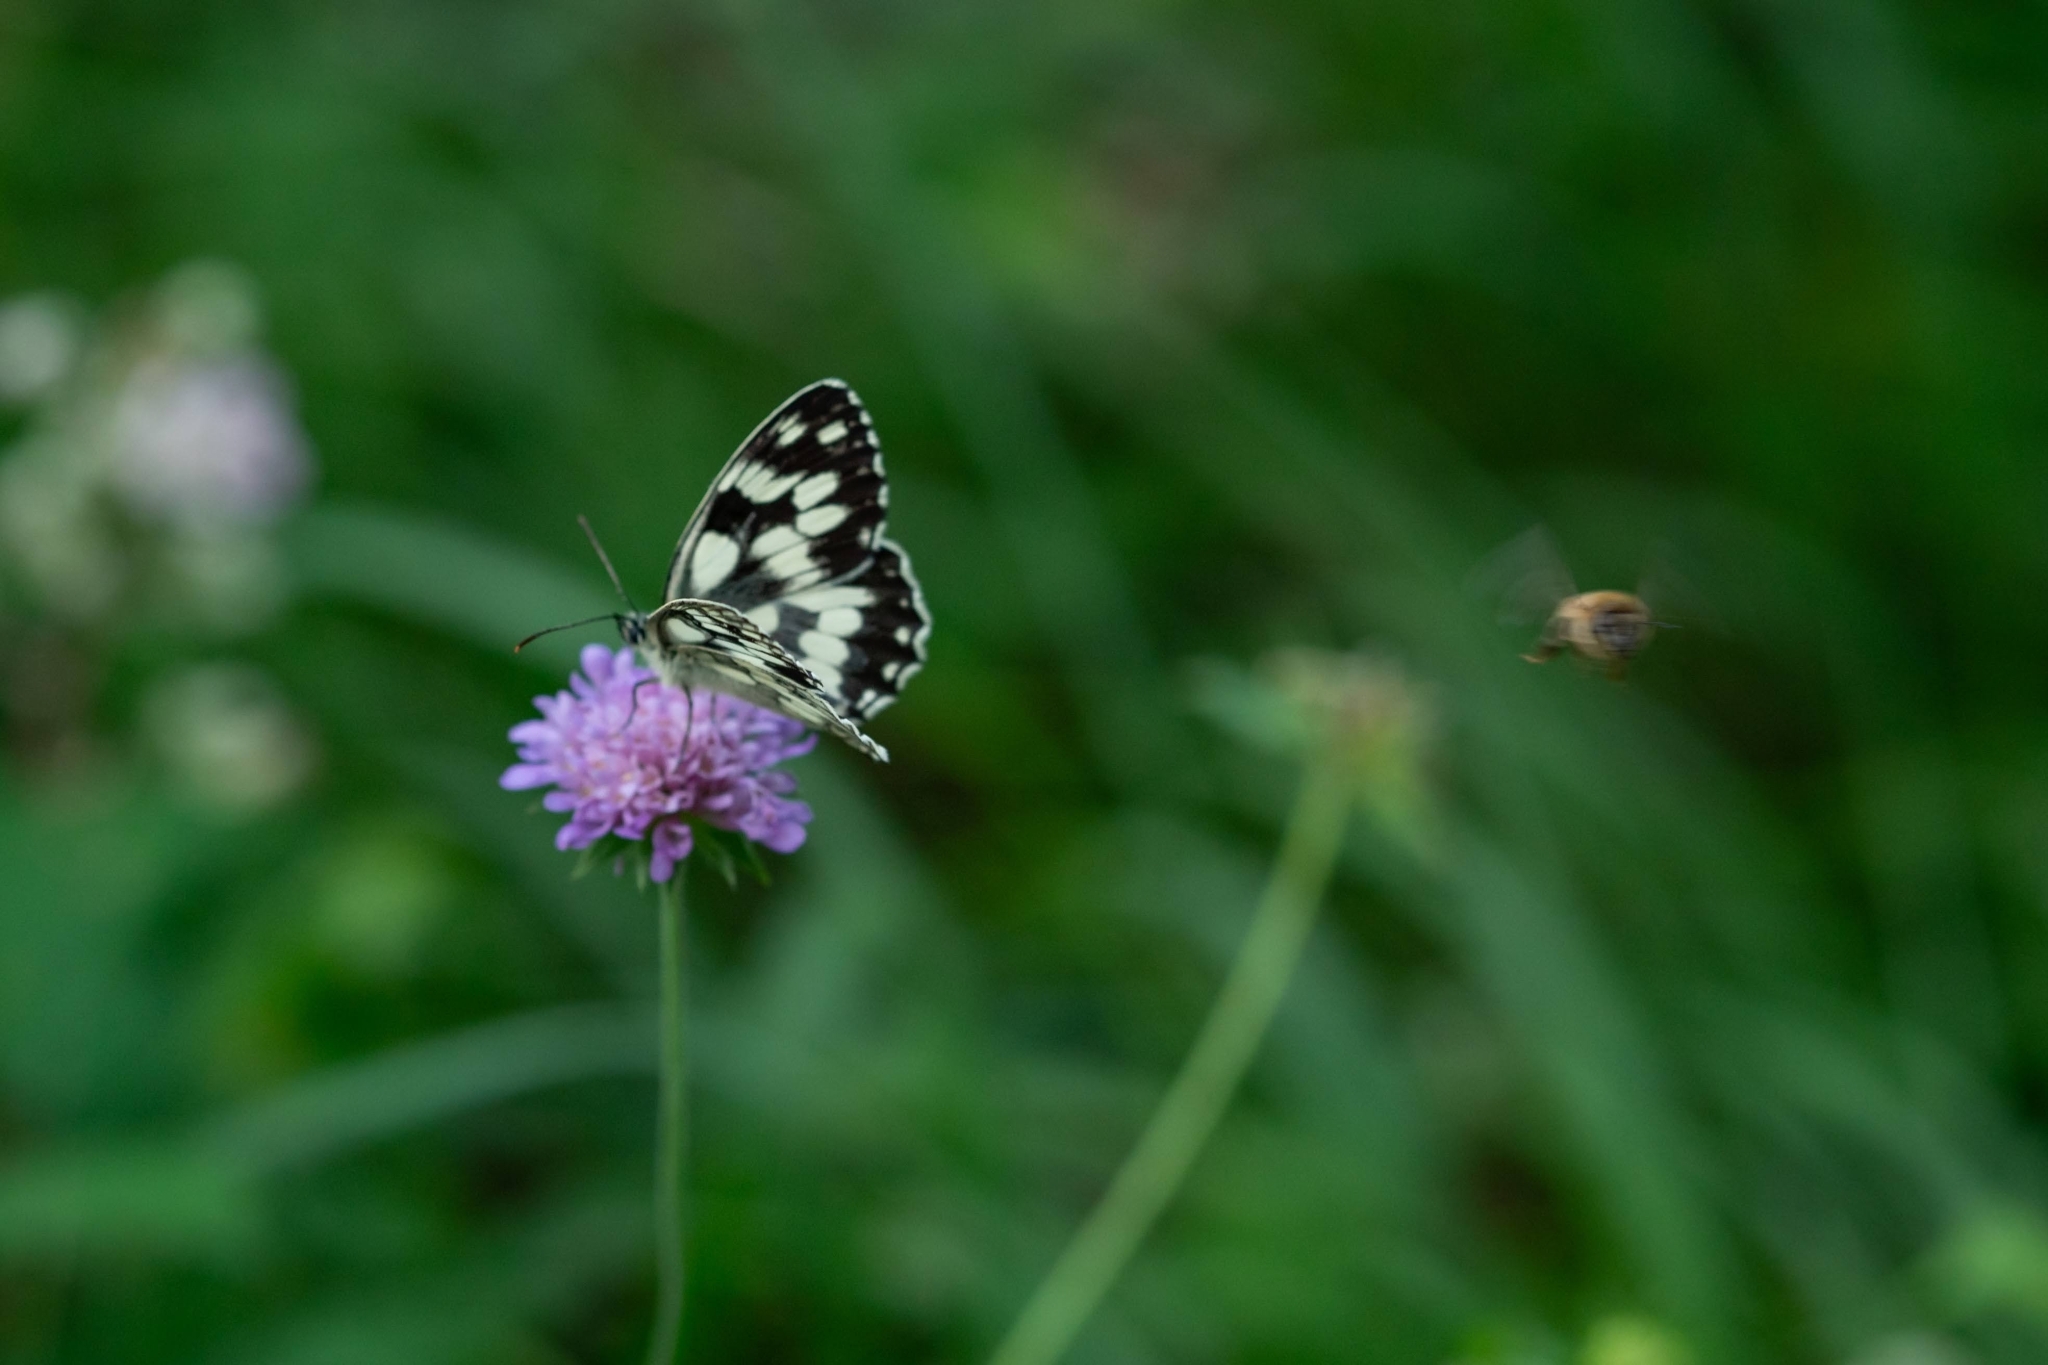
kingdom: Animalia
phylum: Arthropoda
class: Insecta
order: Lepidoptera
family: Nymphalidae
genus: Melanargia
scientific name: Melanargia galathea
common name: Marbled white
